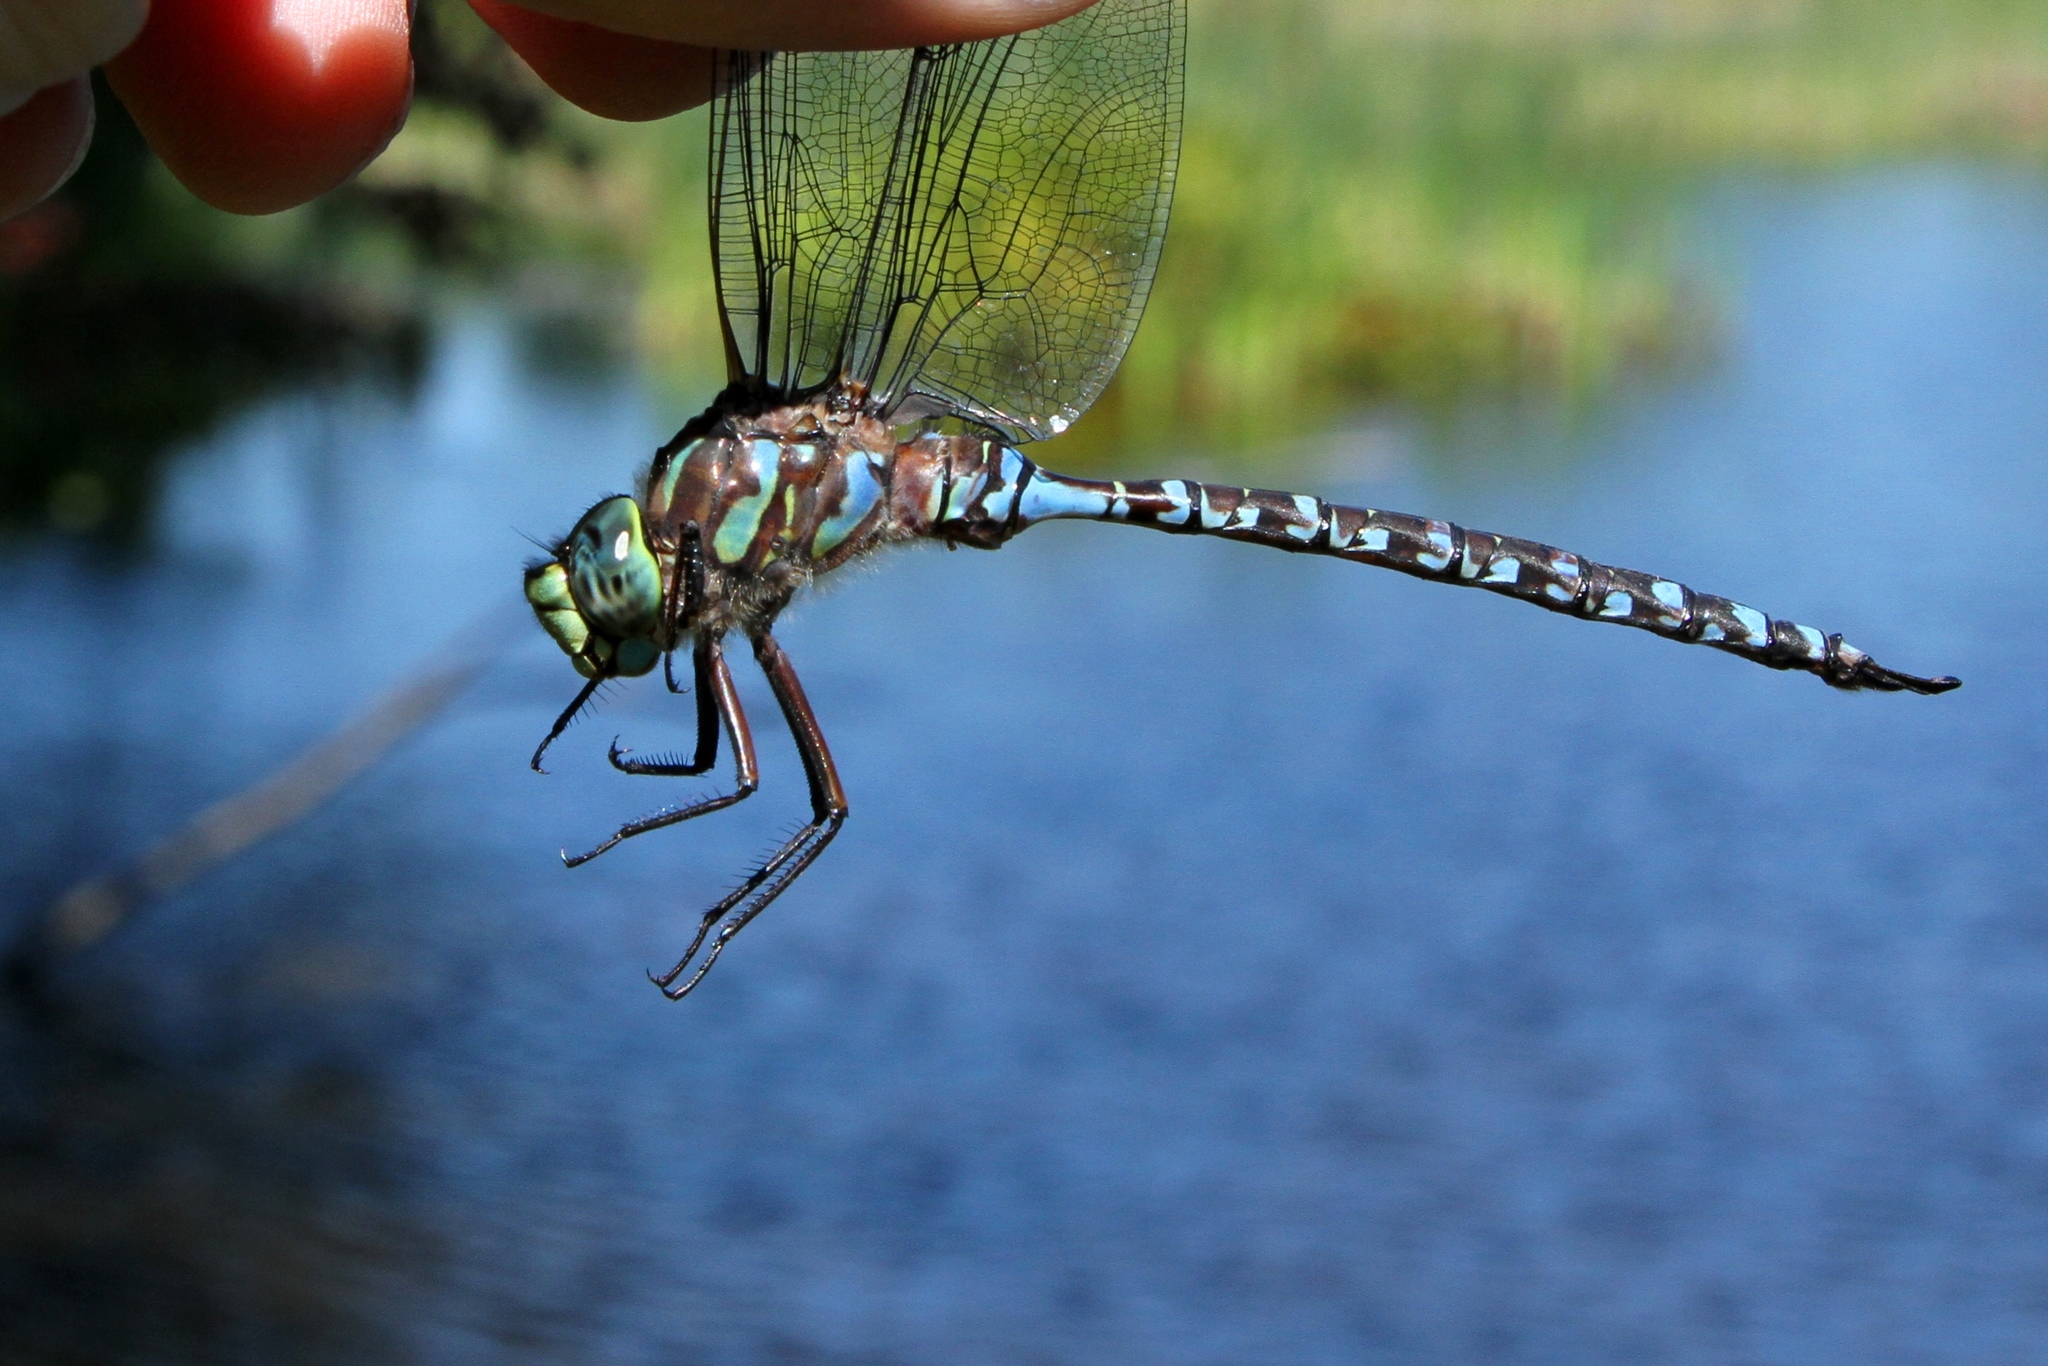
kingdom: Animalia
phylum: Arthropoda
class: Insecta
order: Odonata
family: Aeshnidae
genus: Aeshna
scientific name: Aeshna eremita
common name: Lake darner
